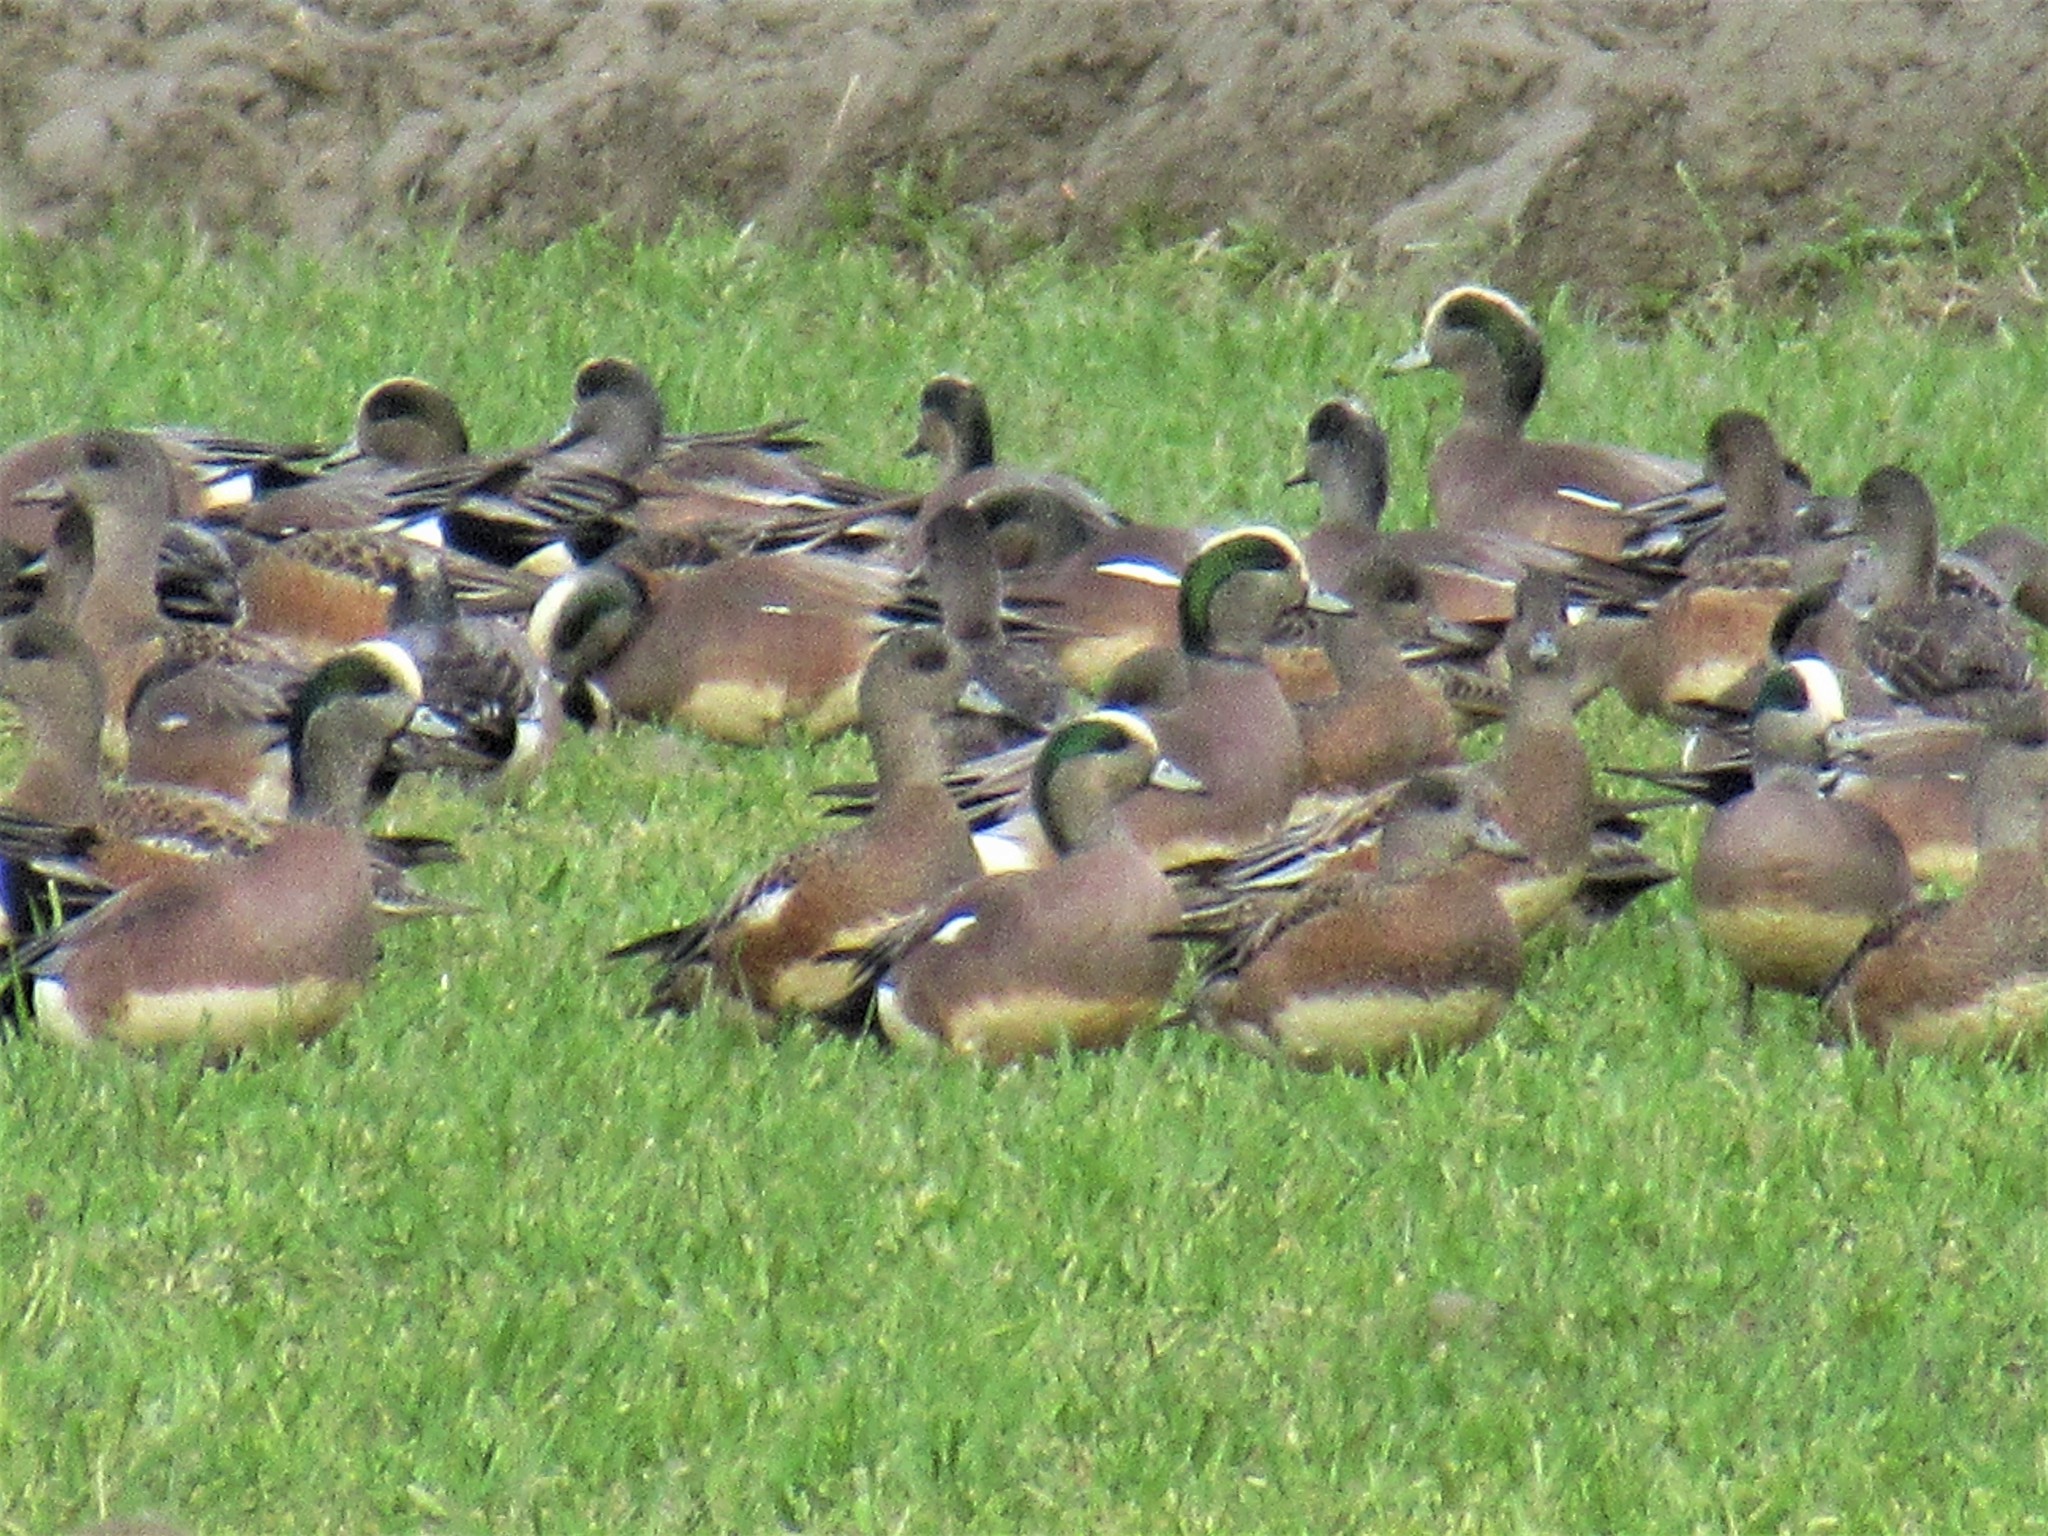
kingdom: Animalia
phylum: Chordata
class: Aves
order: Anseriformes
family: Anatidae
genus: Mareca
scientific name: Mareca americana
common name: American wigeon
